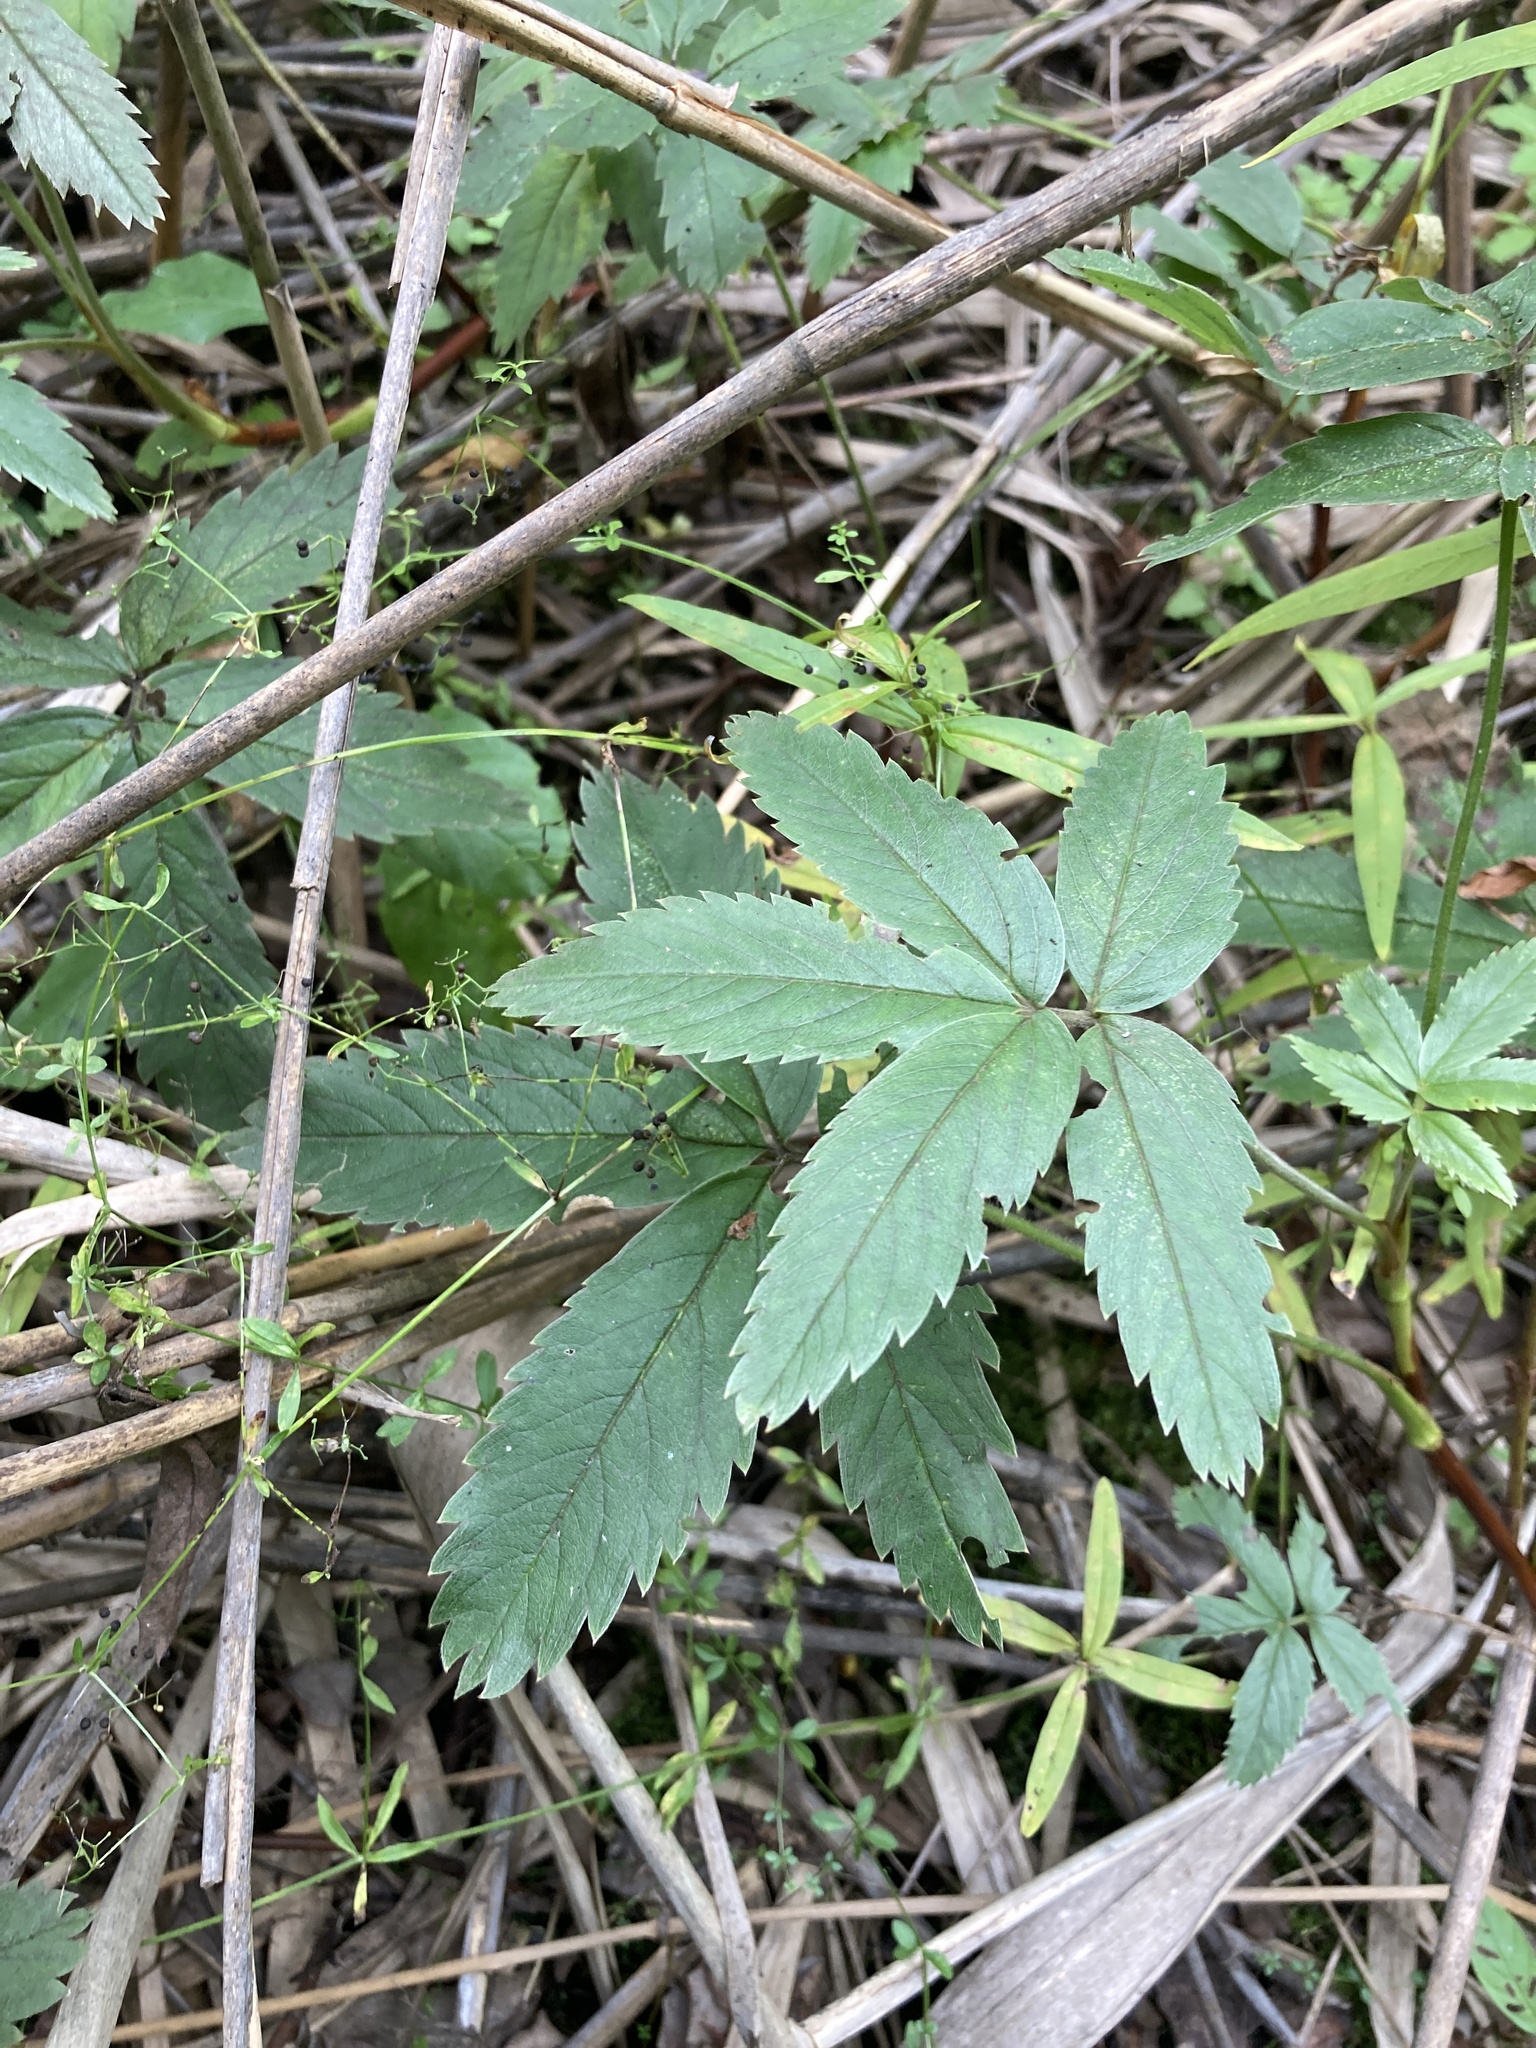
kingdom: Plantae
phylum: Tracheophyta
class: Magnoliopsida
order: Rosales
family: Rosaceae
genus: Comarum
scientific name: Comarum palustre
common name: Marsh cinquefoil
